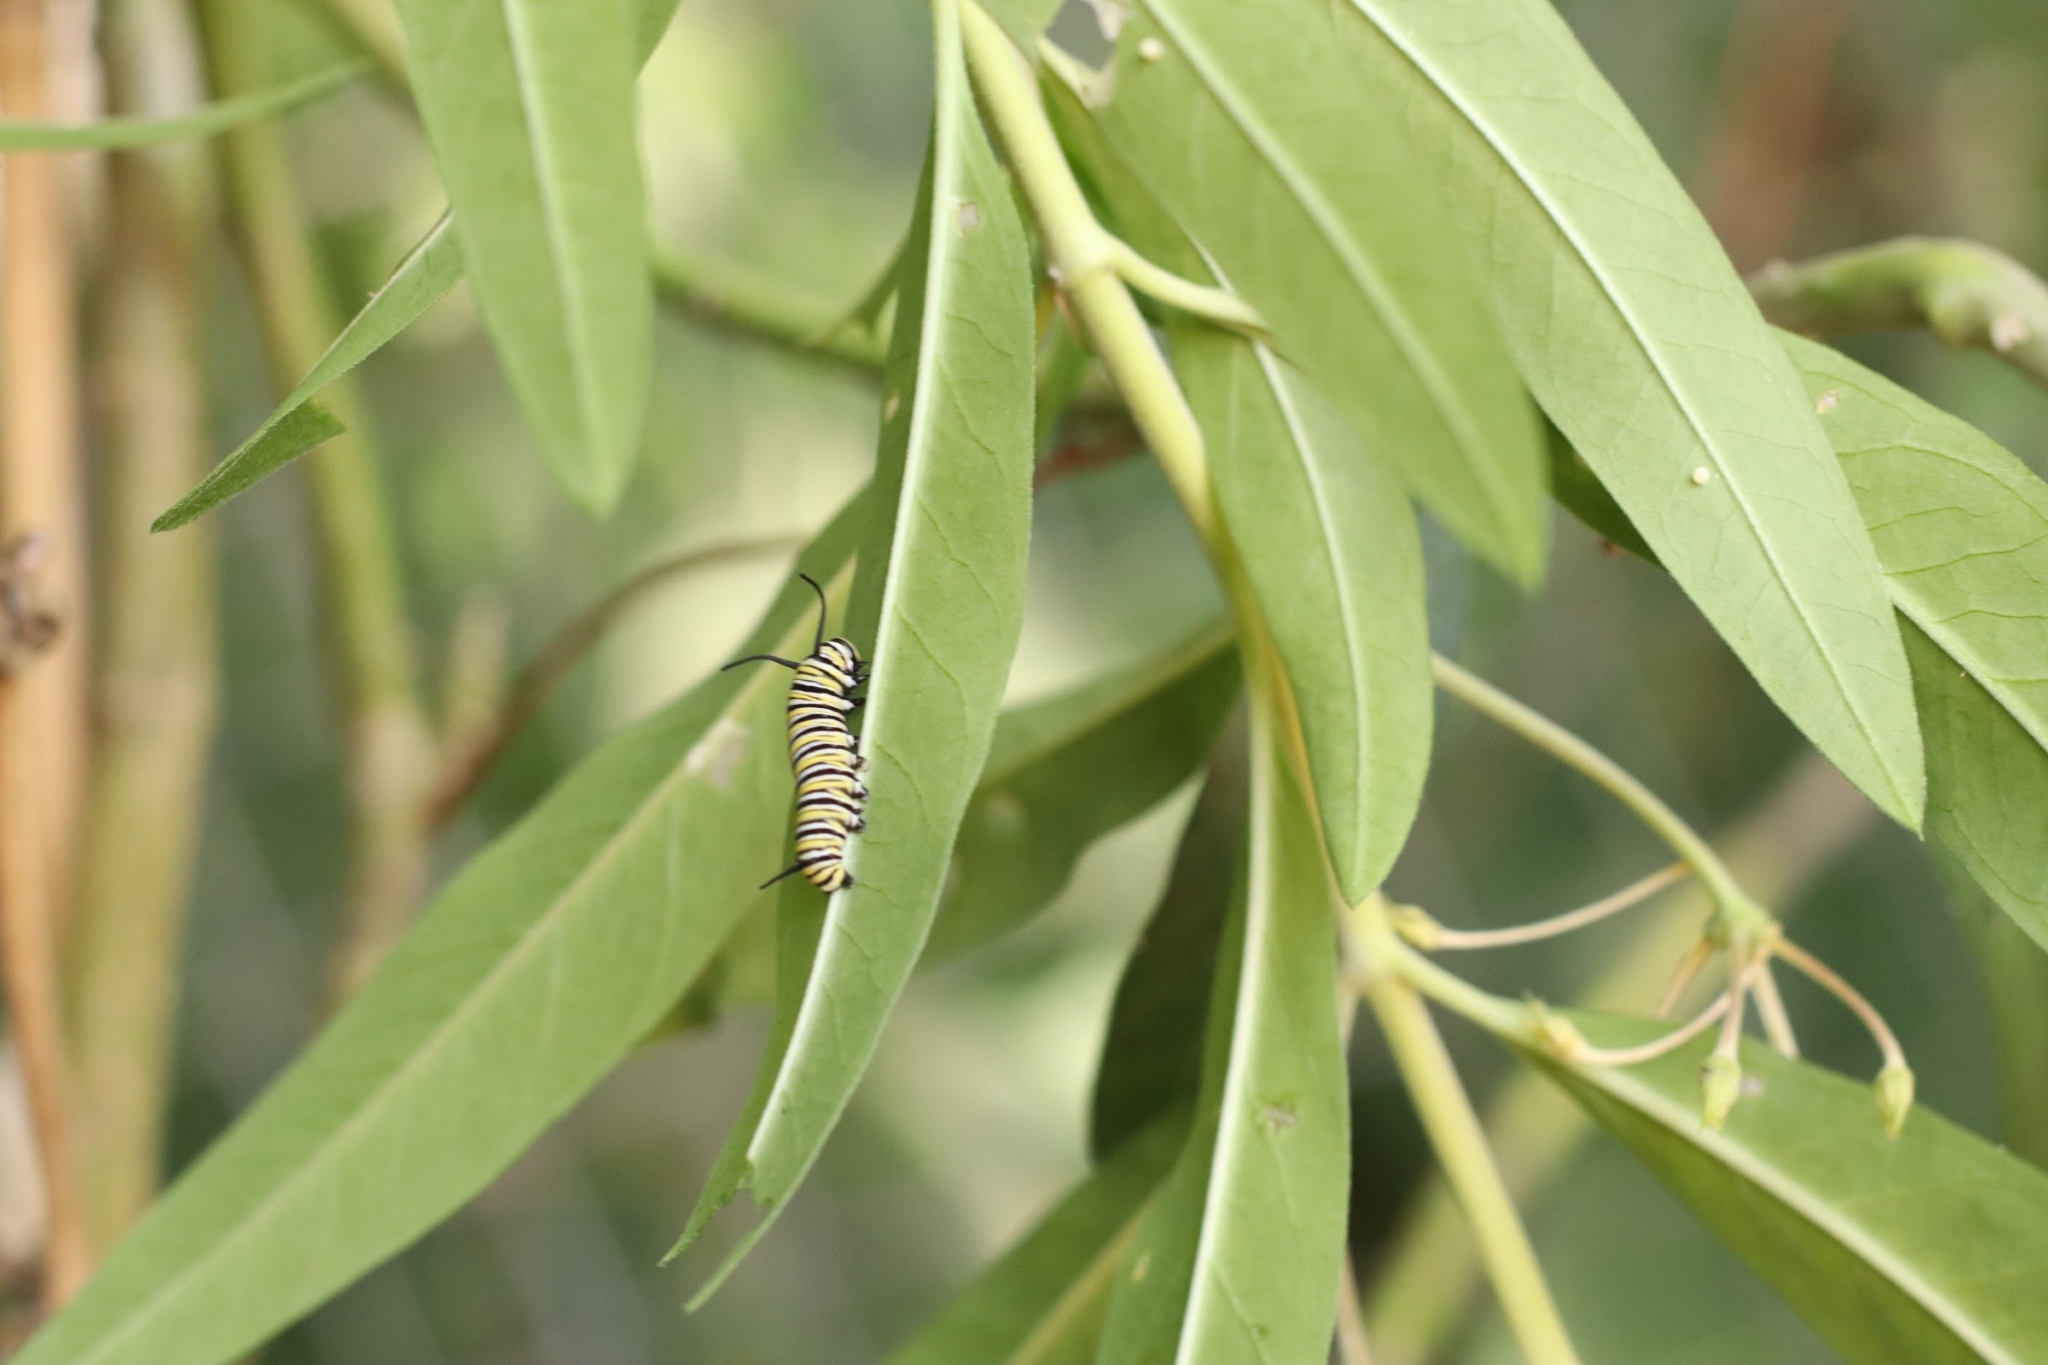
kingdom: Animalia
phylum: Arthropoda
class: Insecta
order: Lepidoptera
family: Nymphalidae
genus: Danaus
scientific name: Danaus plexippus
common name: Monarch
